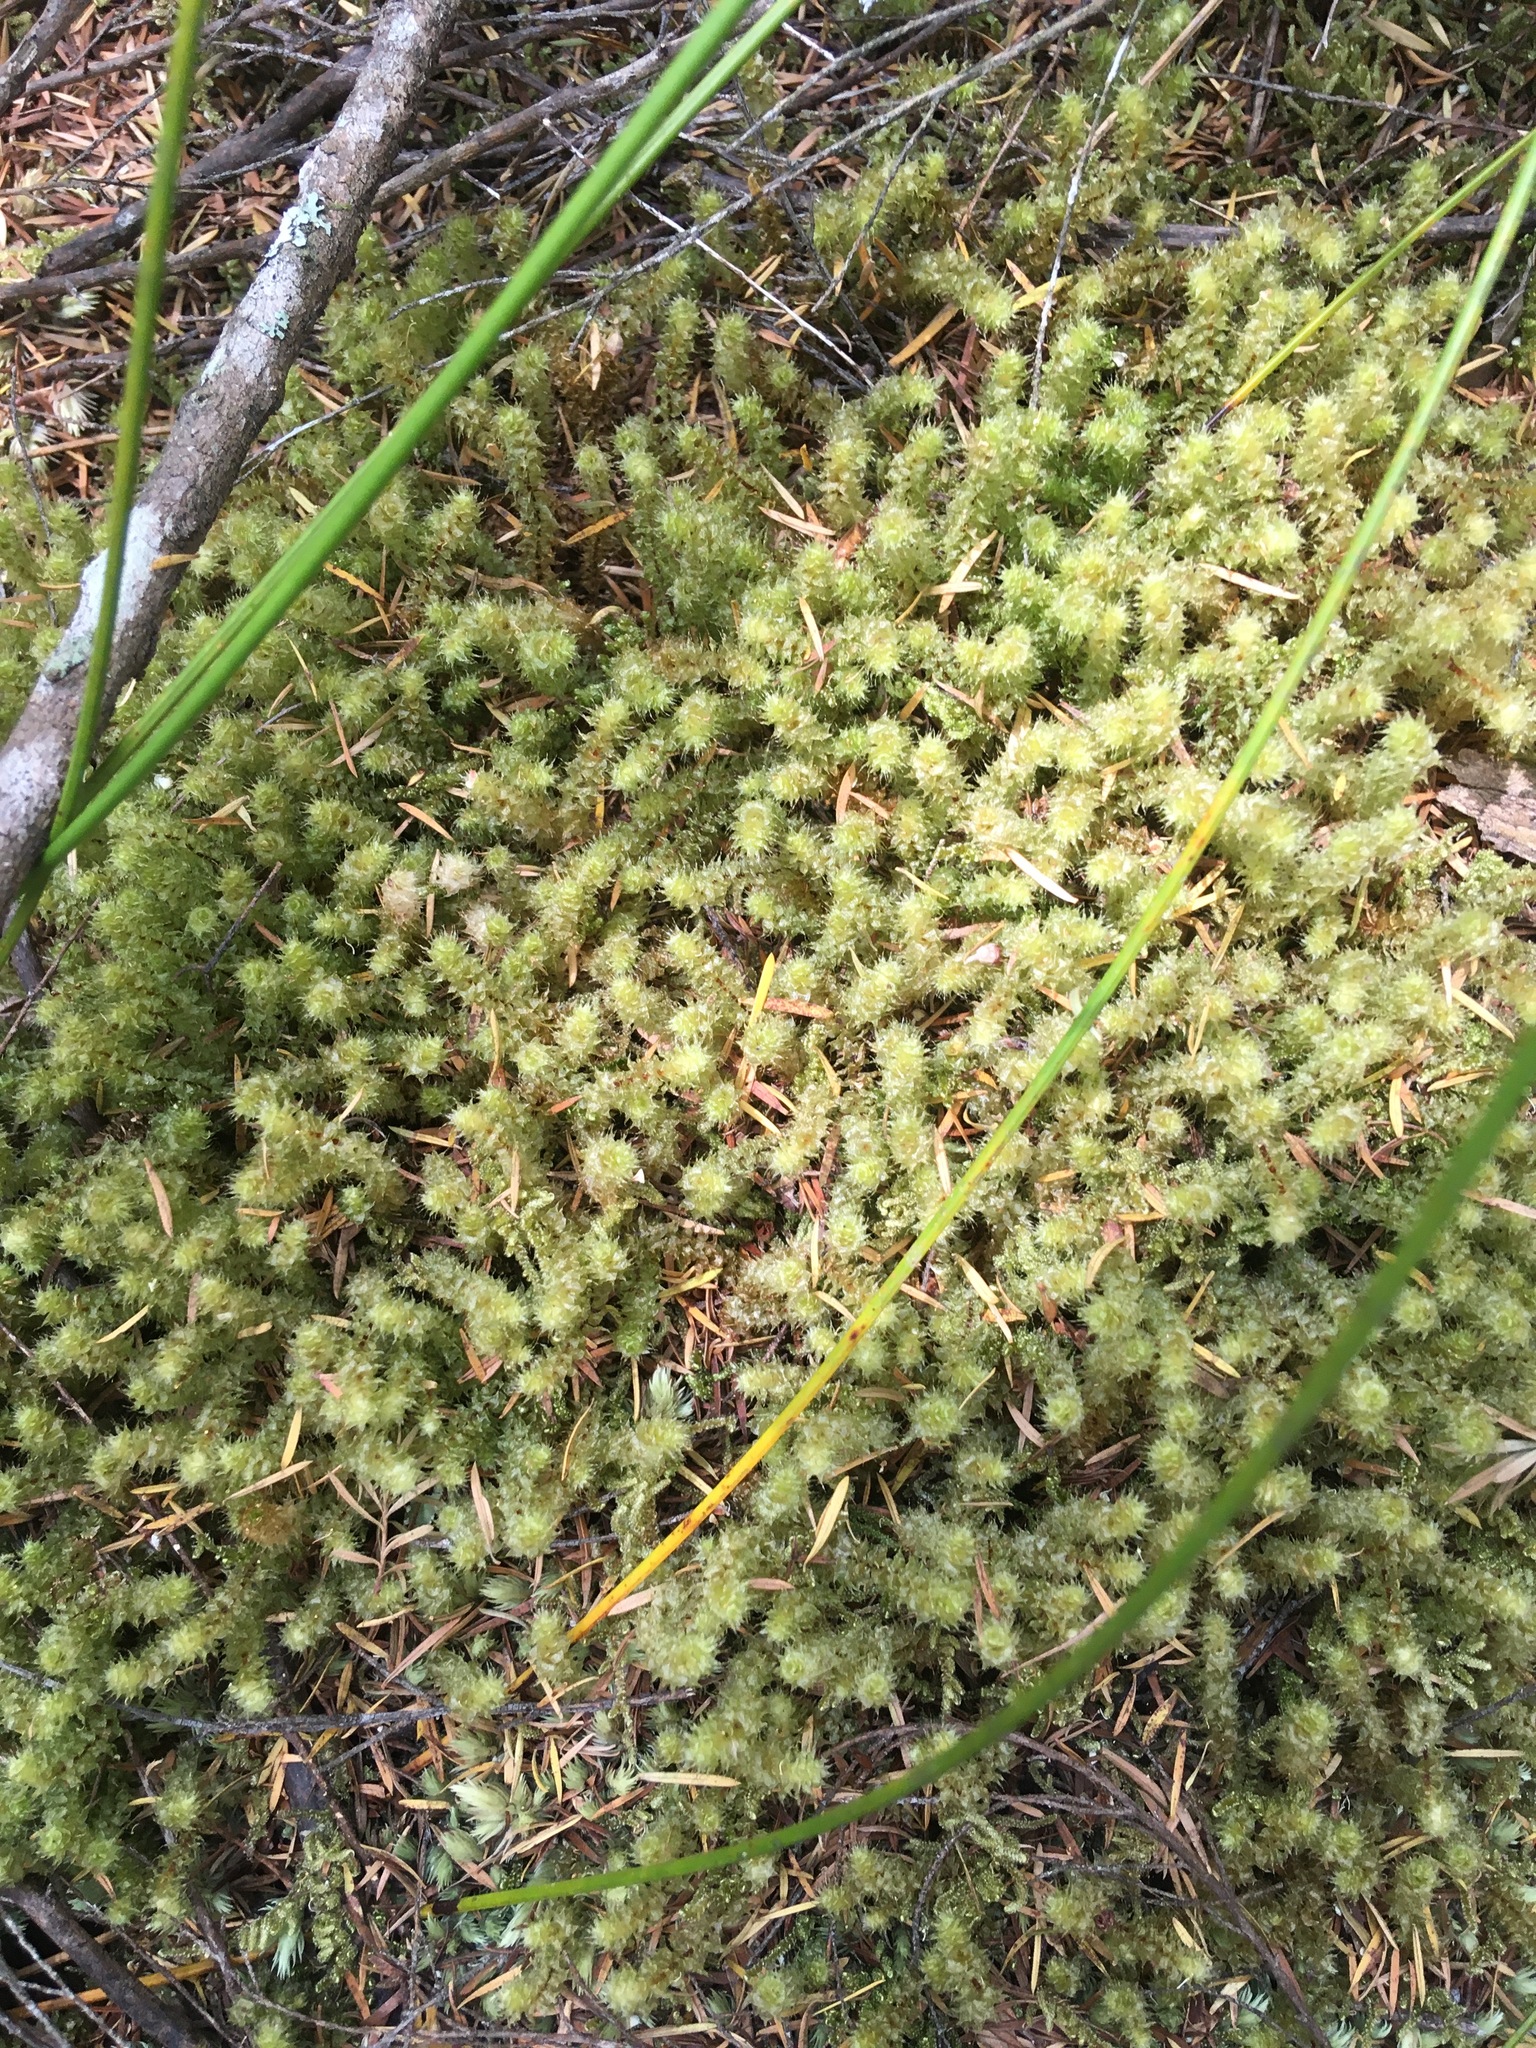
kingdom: Plantae
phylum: Bryophyta
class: Bryopsida
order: Ptychomniales
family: Ptychomniaceae
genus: Ptychomnion
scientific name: Ptychomnion aciculare
